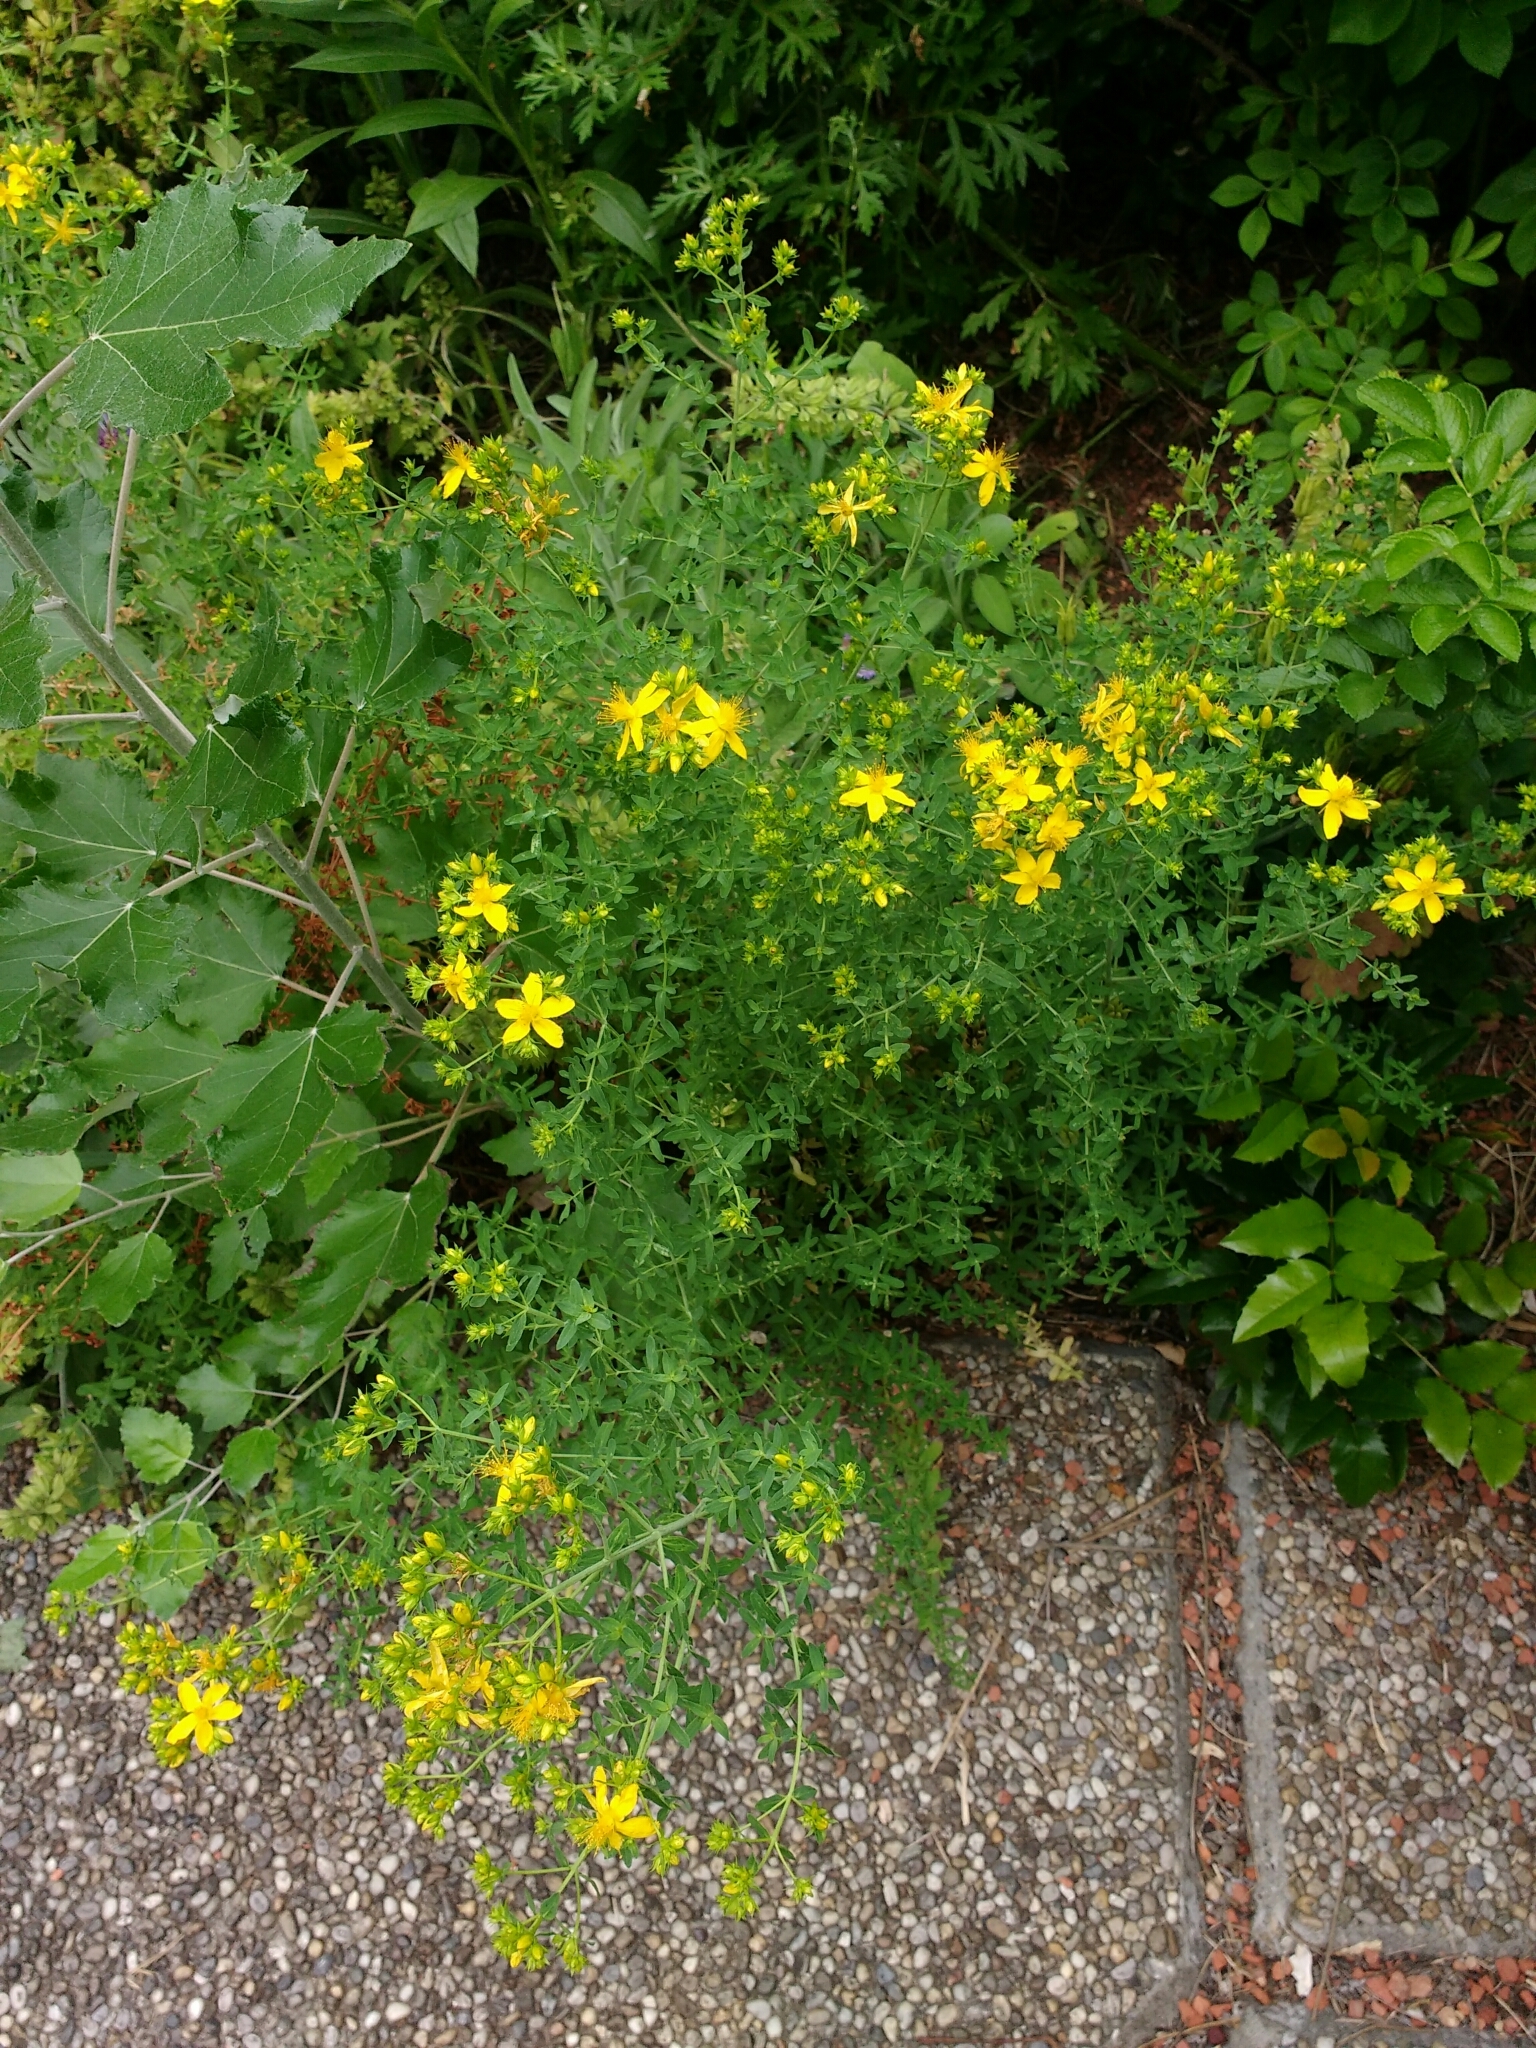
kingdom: Plantae
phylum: Tracheophyta
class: Magnoliopsida
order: Malpighiales
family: Hypericaceae
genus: Hypericum
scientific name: Hypericum perforatum
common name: Common st. johnswort
